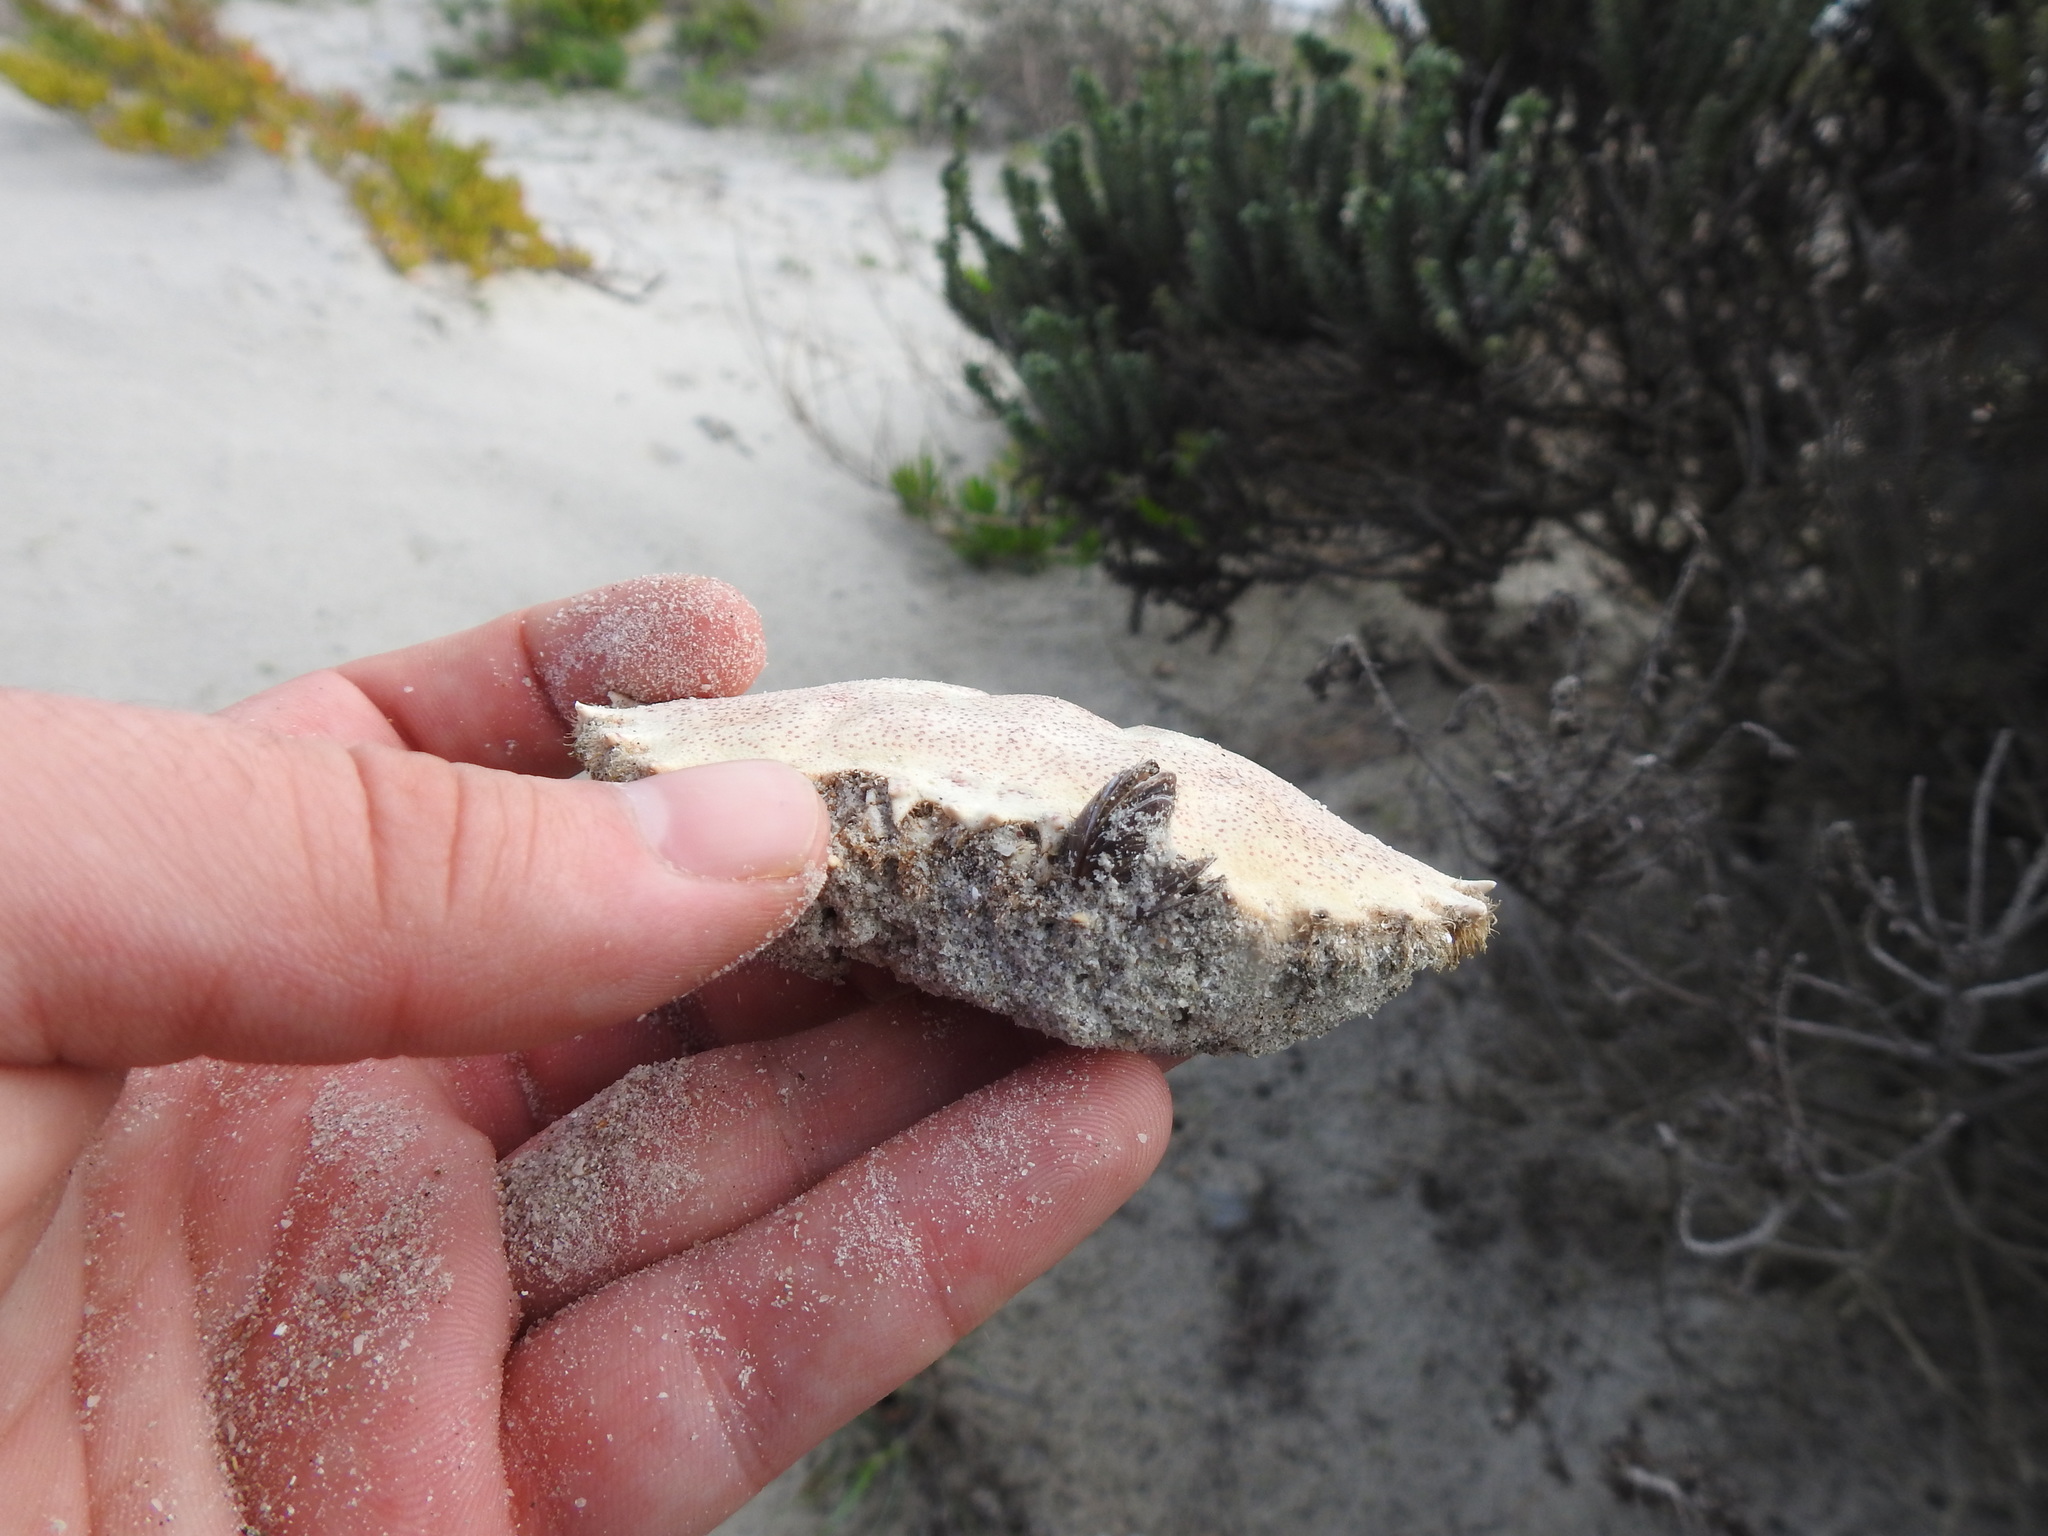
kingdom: Animalia
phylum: Arthropoda
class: Malacostraca
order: Decapoda
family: Ovalipidae
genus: Ovalipes
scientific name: Ovalipes trimaculatus
